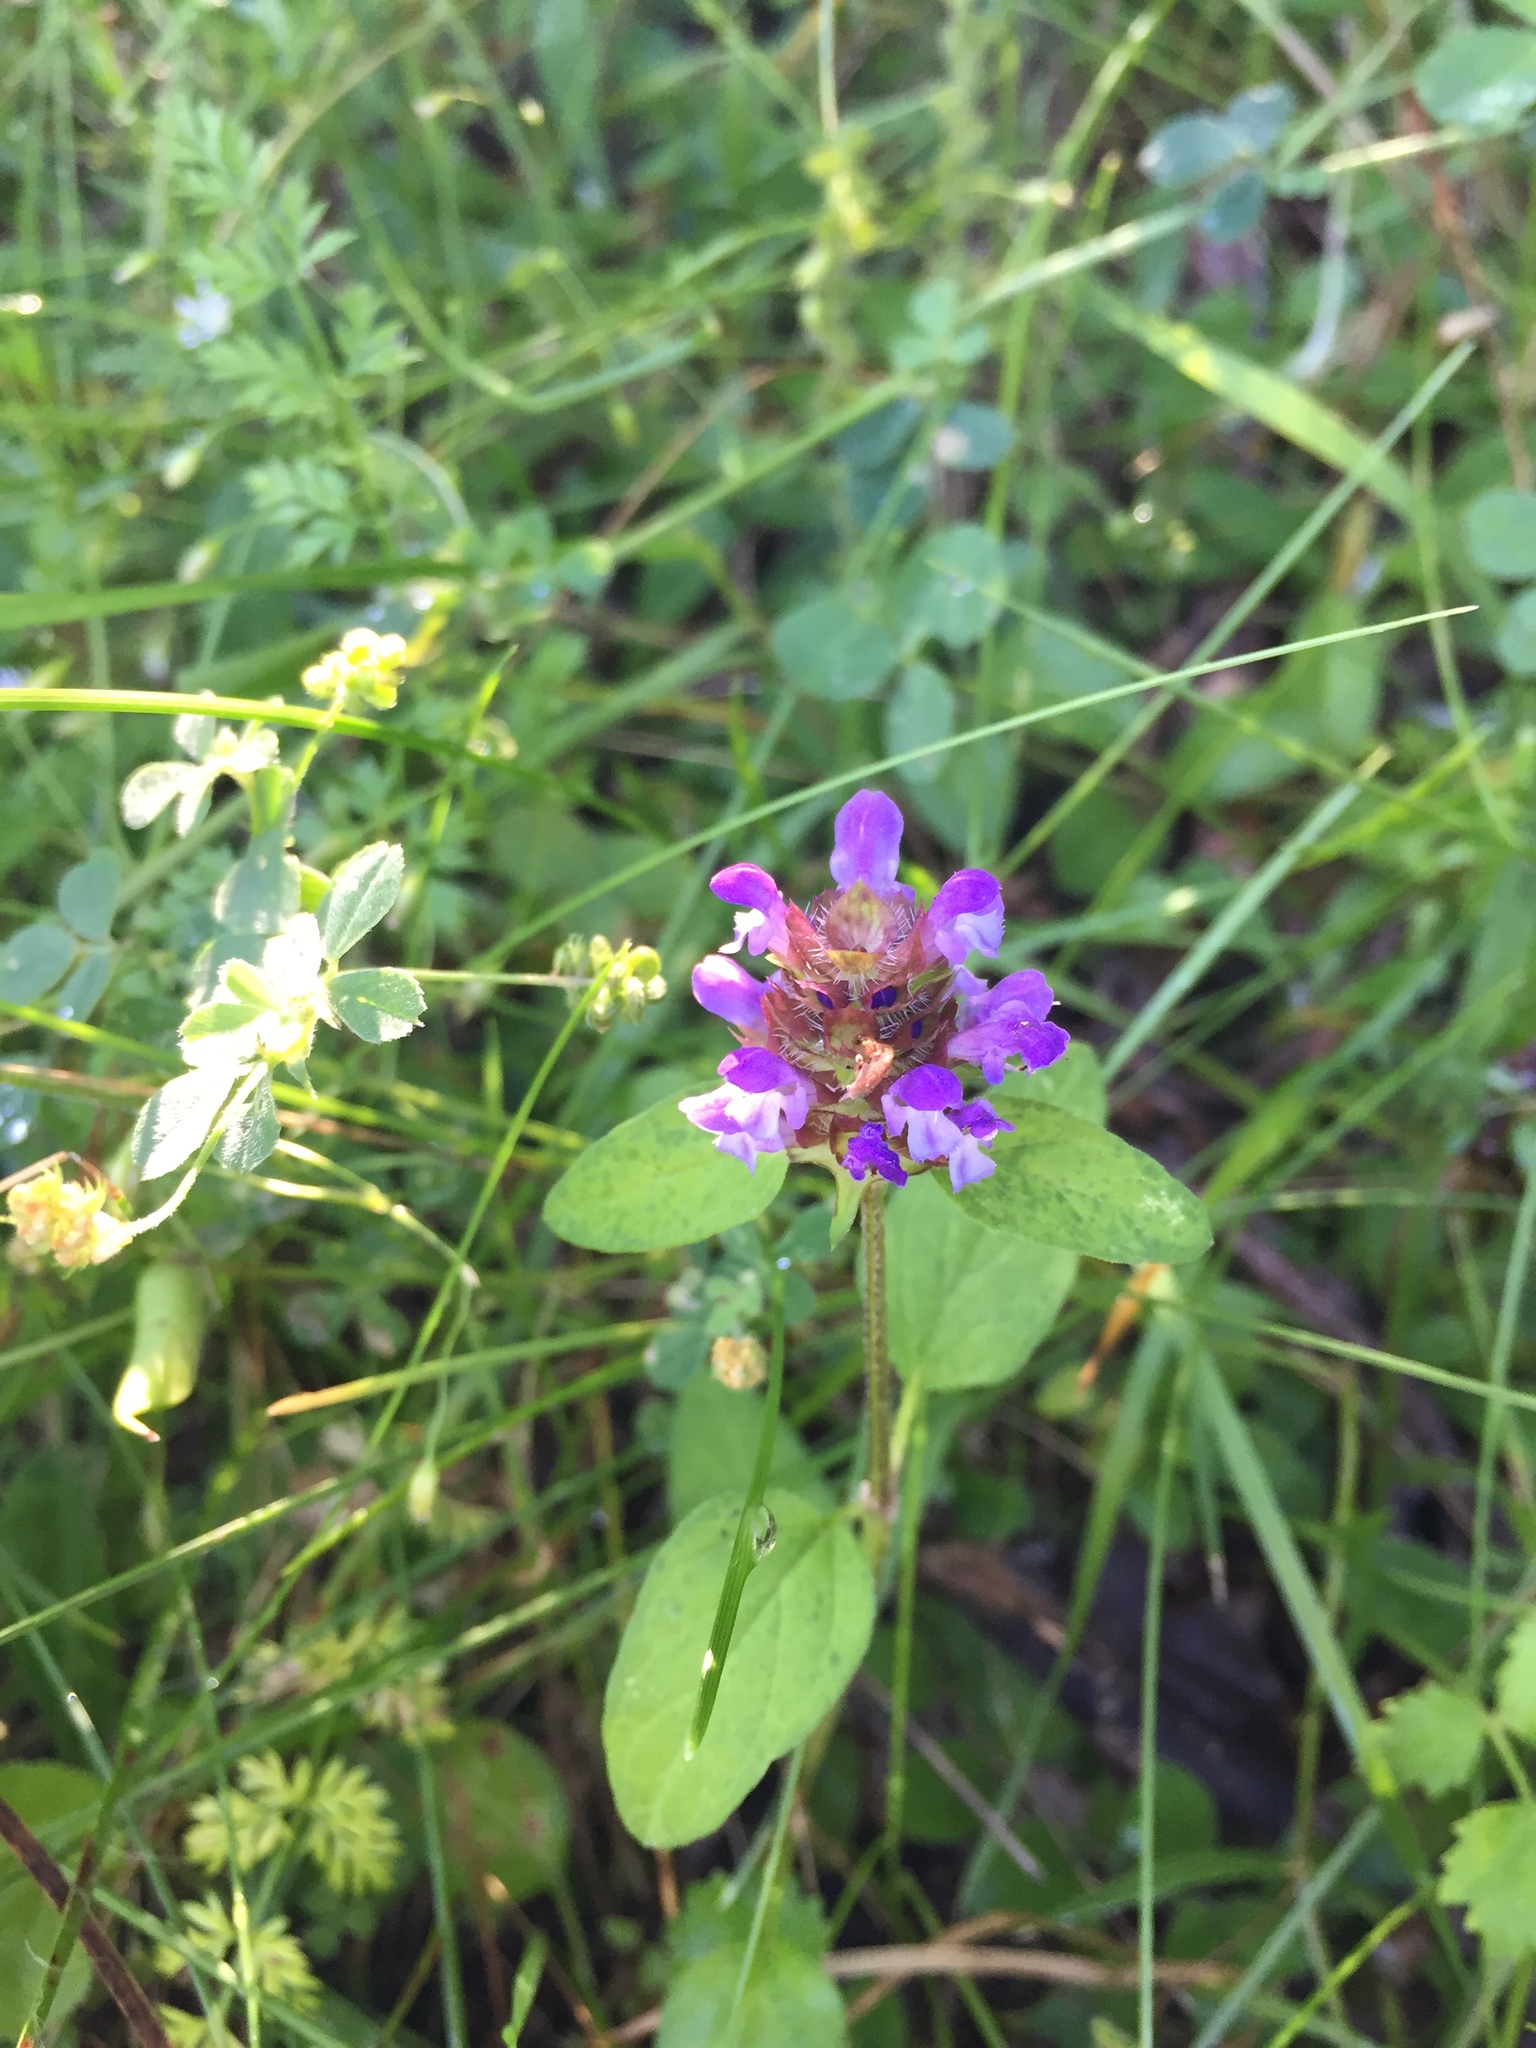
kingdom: Plantae
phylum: Tracheophyta
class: Magnoliopsida
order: Lamiales
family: Lamiaceae
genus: Prunella
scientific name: Prunella vulgaris
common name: Heal-all
